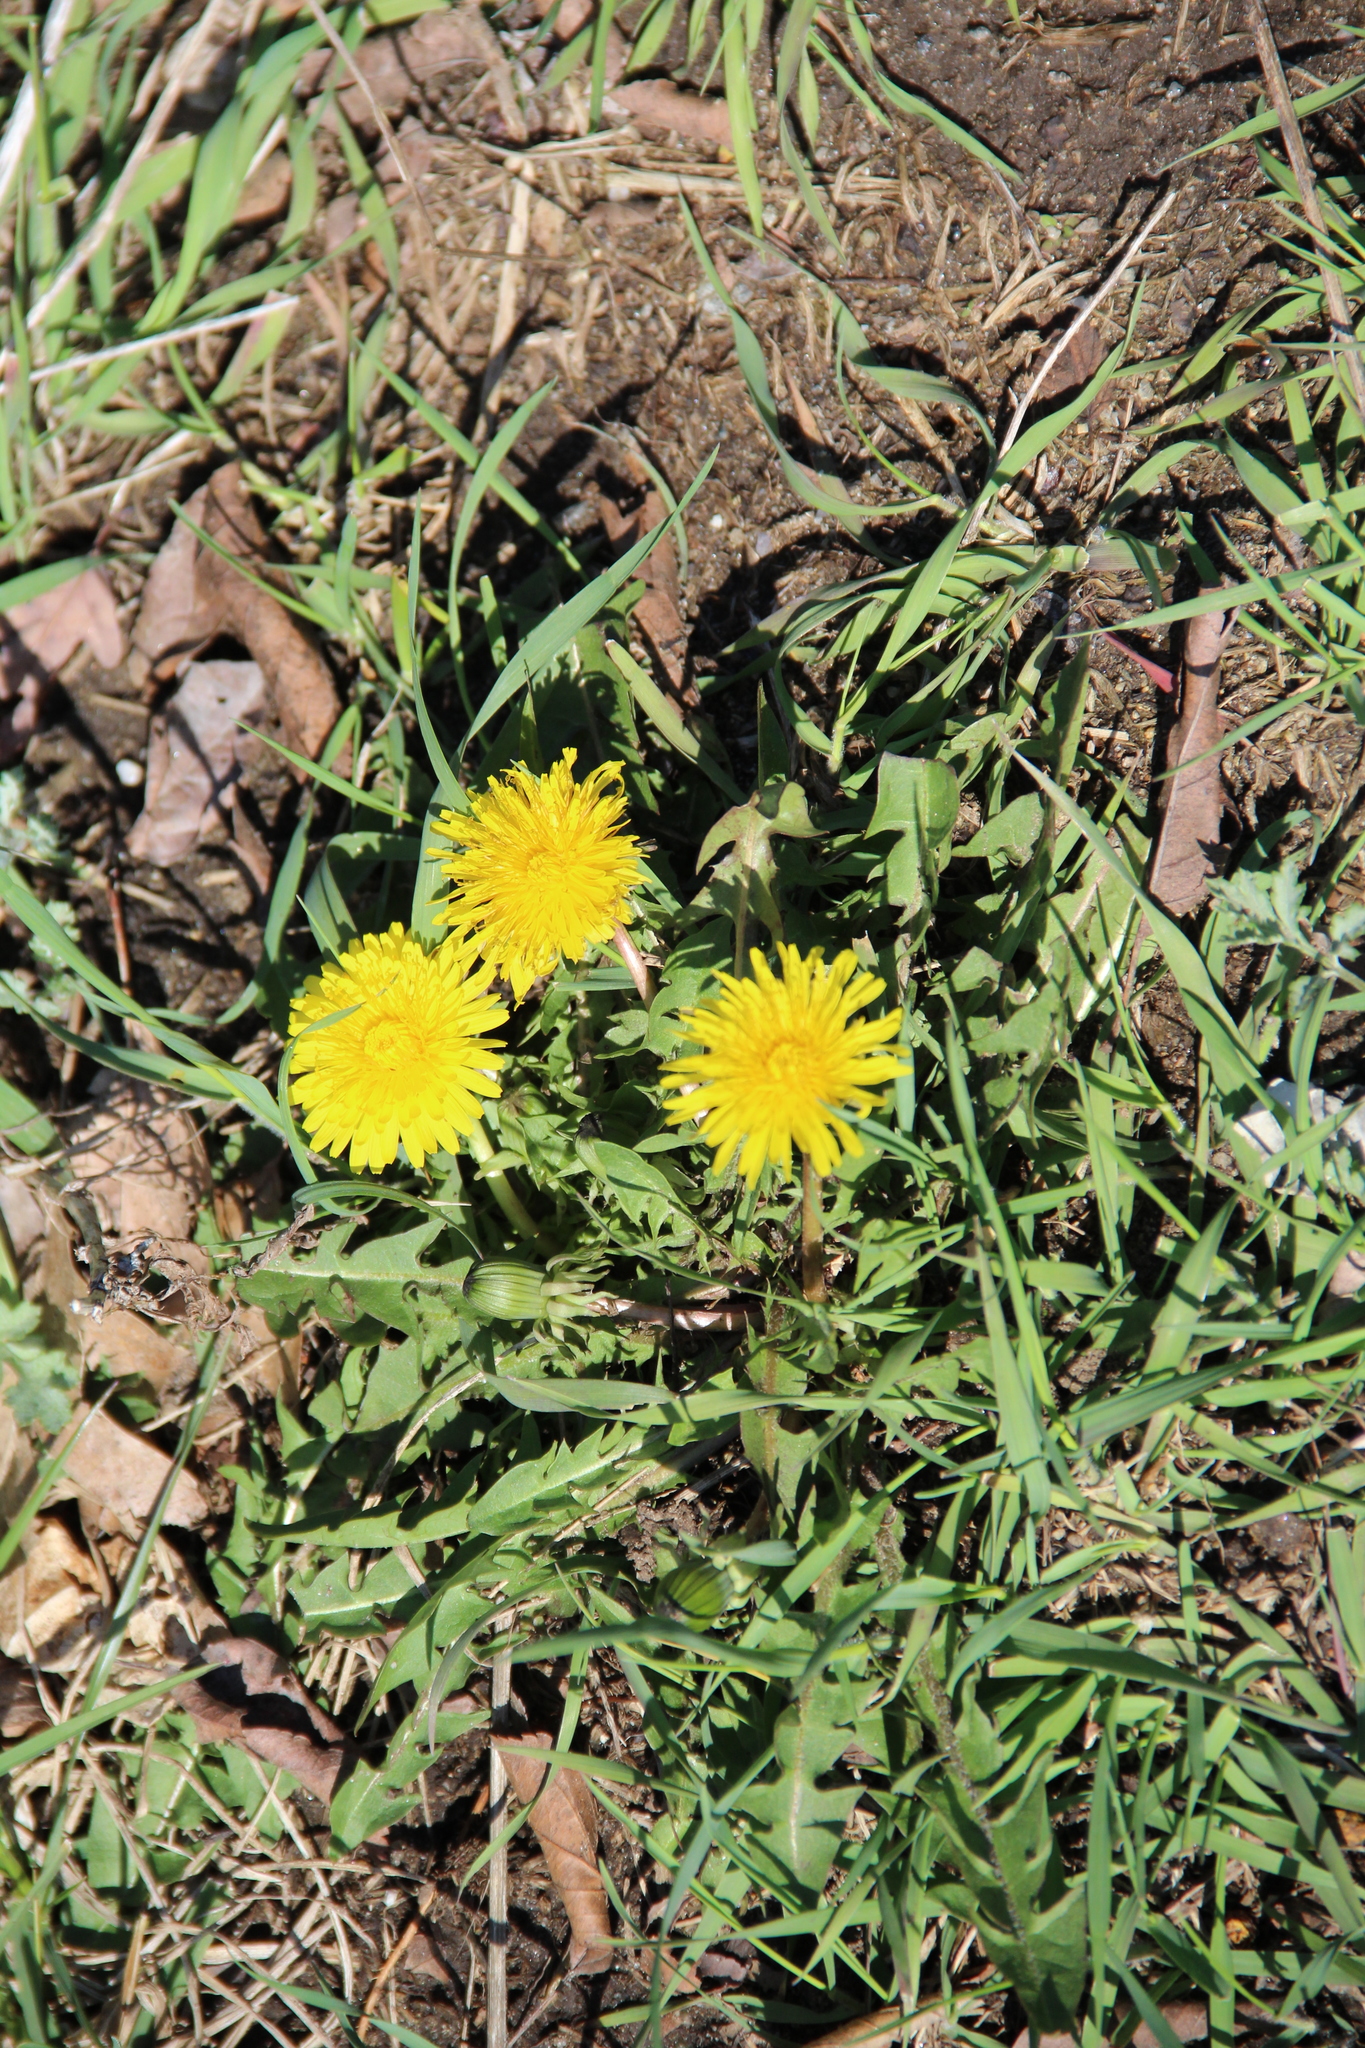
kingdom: Plantae
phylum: Tracheophyta
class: Magnoliopsida
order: Asterales
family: Asteraceae
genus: Taraxacum
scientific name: Taraxacum officinale
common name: Common dandelion
